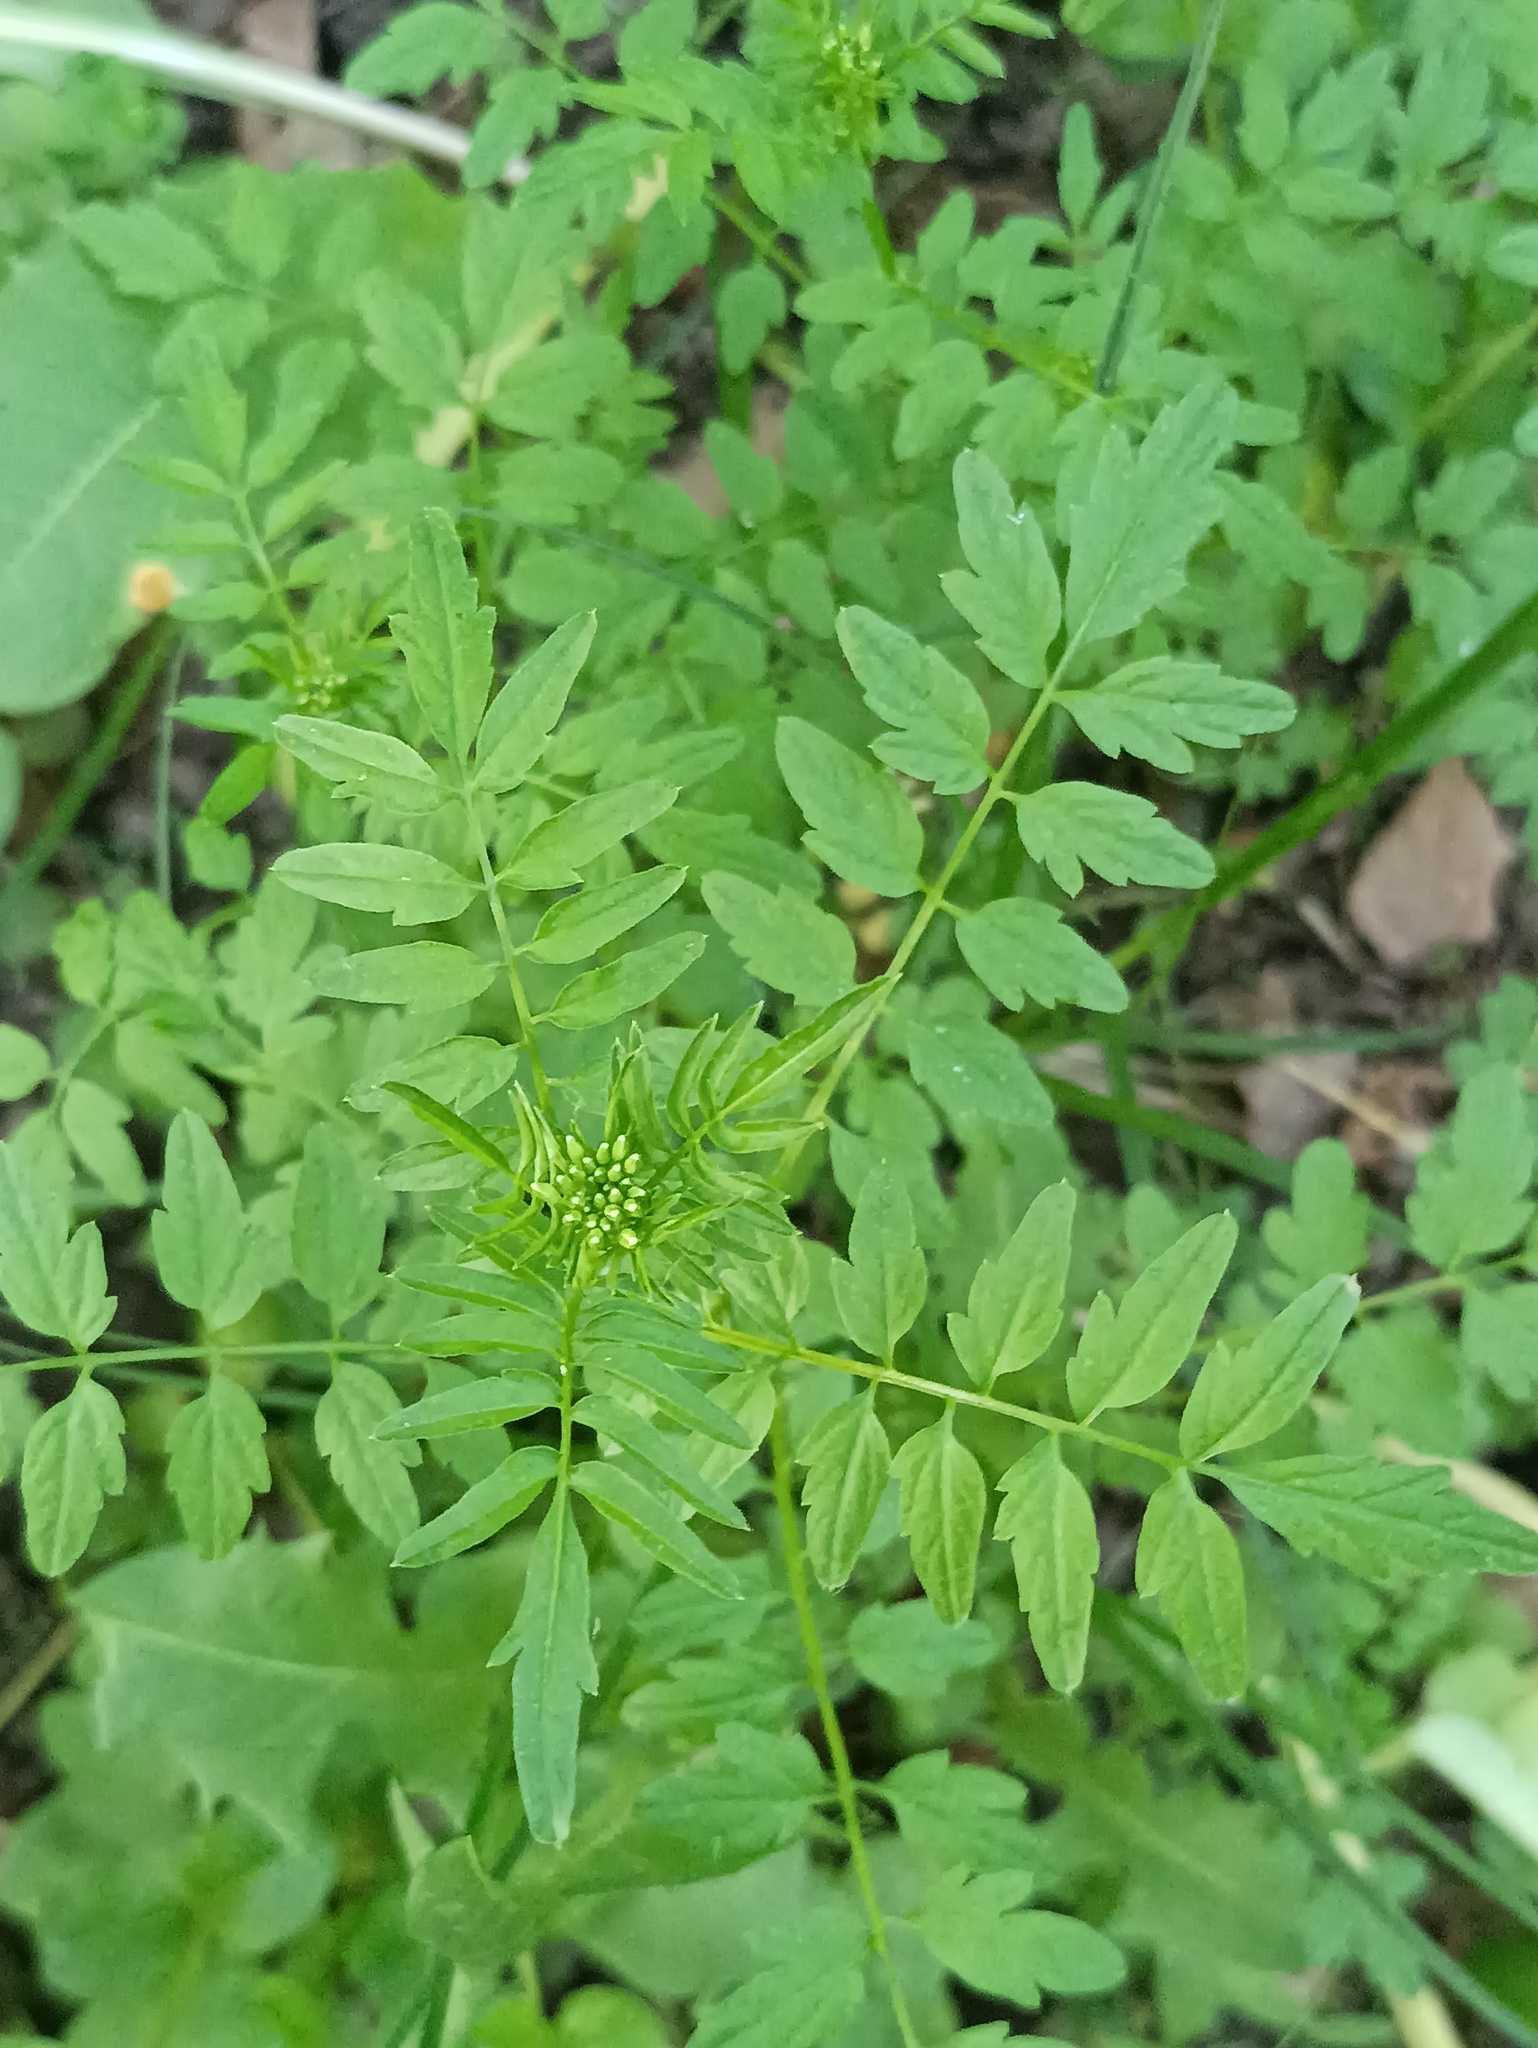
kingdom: Plantae
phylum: Tracheophyta
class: Magnoliopsida
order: Brassicales
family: Brassicaceae
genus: Cardamine
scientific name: Cardamine impatiens
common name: Narrow-leaved bitter-cress
